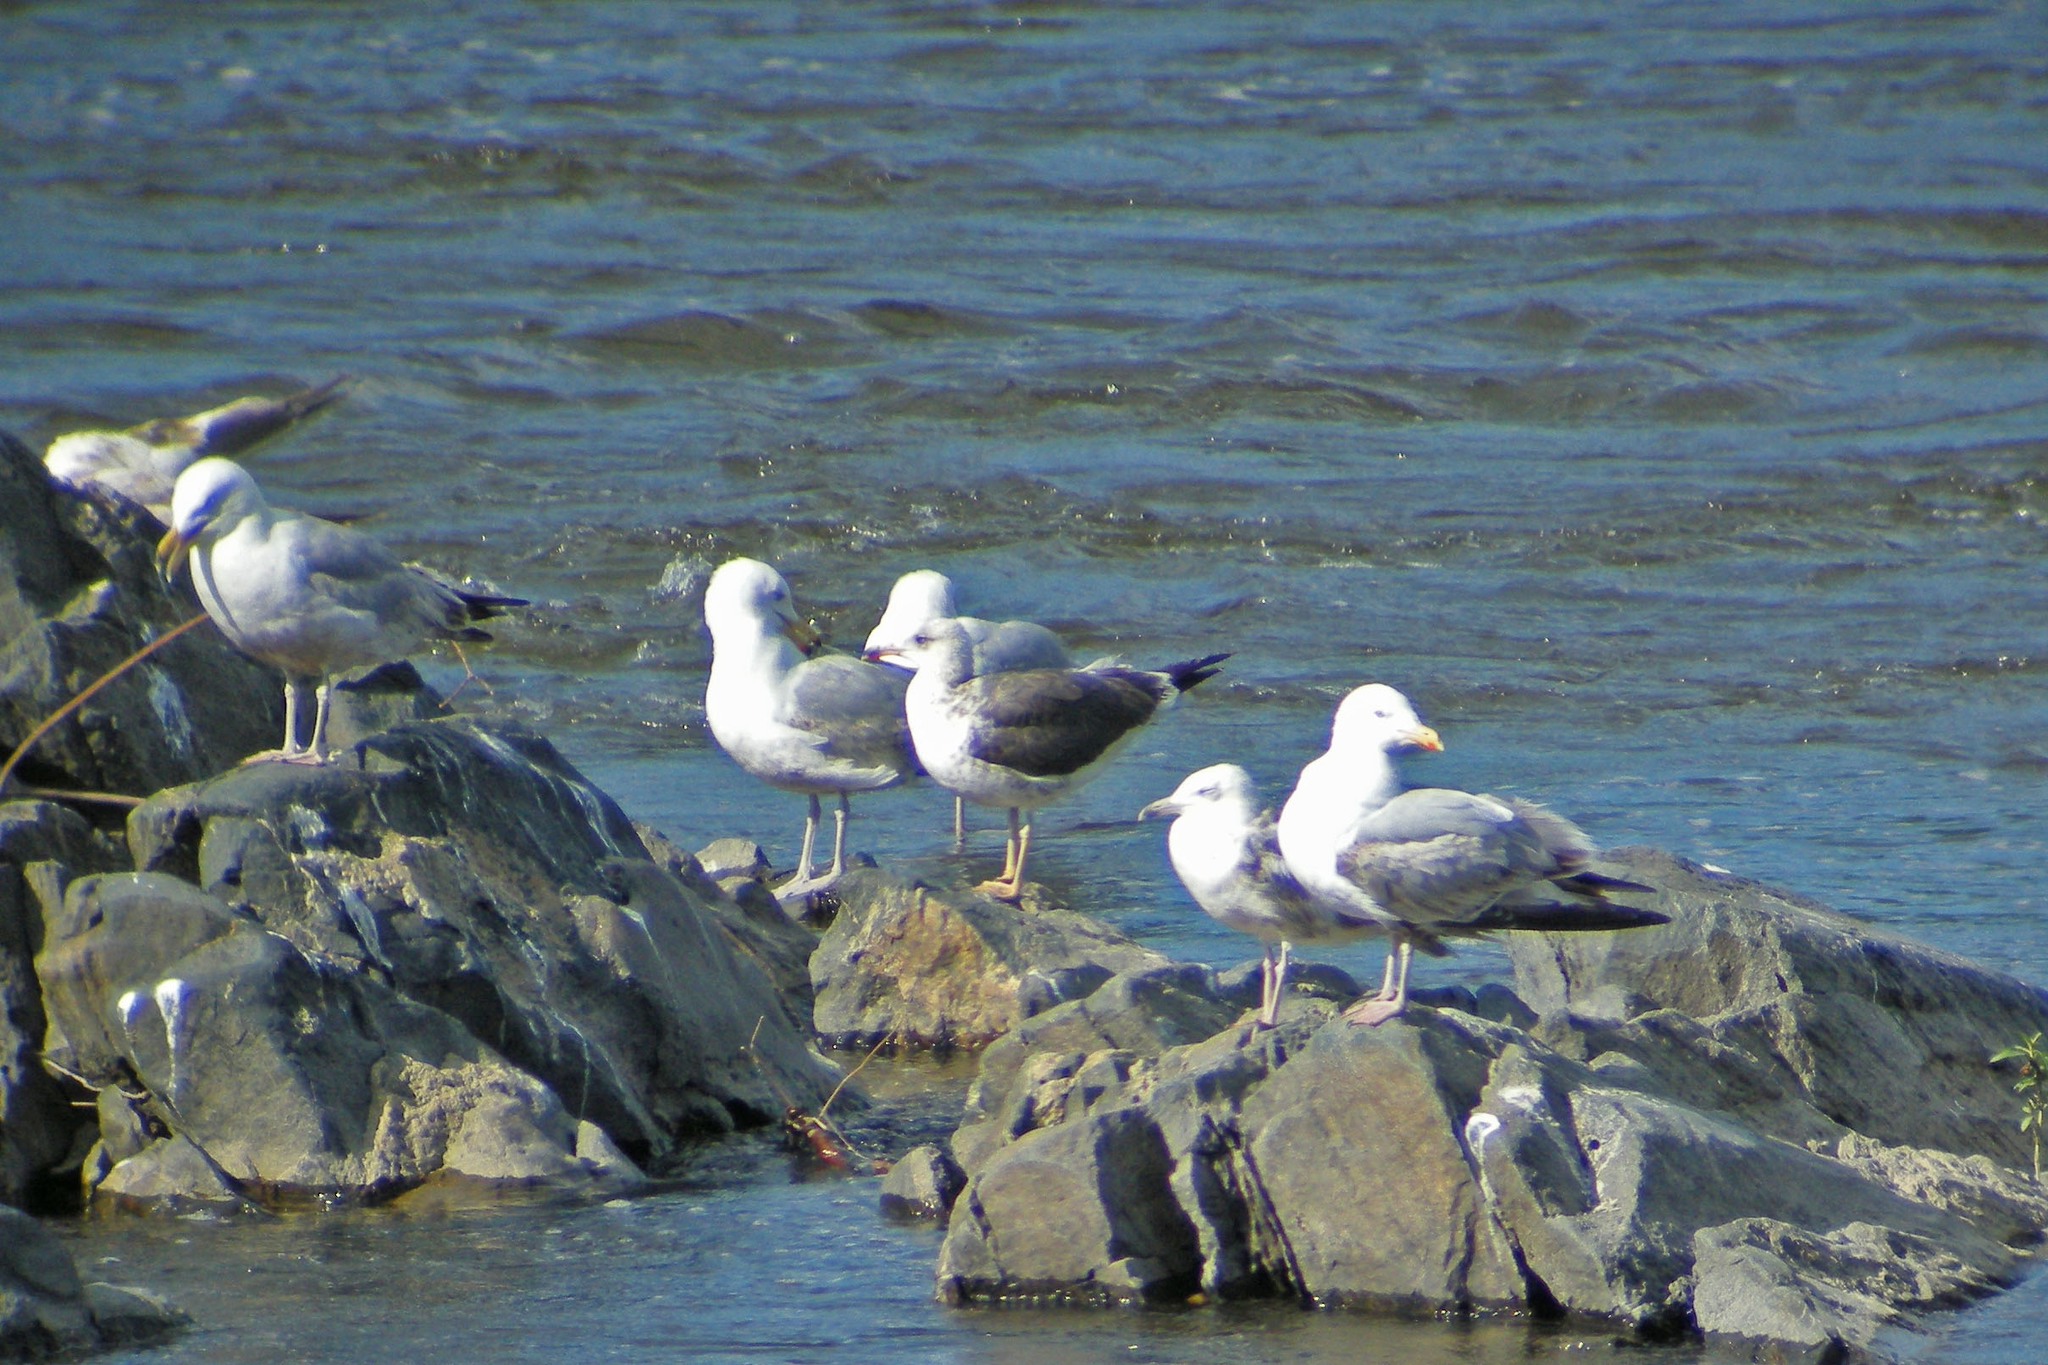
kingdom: Animalia
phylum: Chordata
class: Aves
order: Charadriiformes
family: Laridae
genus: Larus
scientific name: Larus fuscus
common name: Lesser black-backed gull
